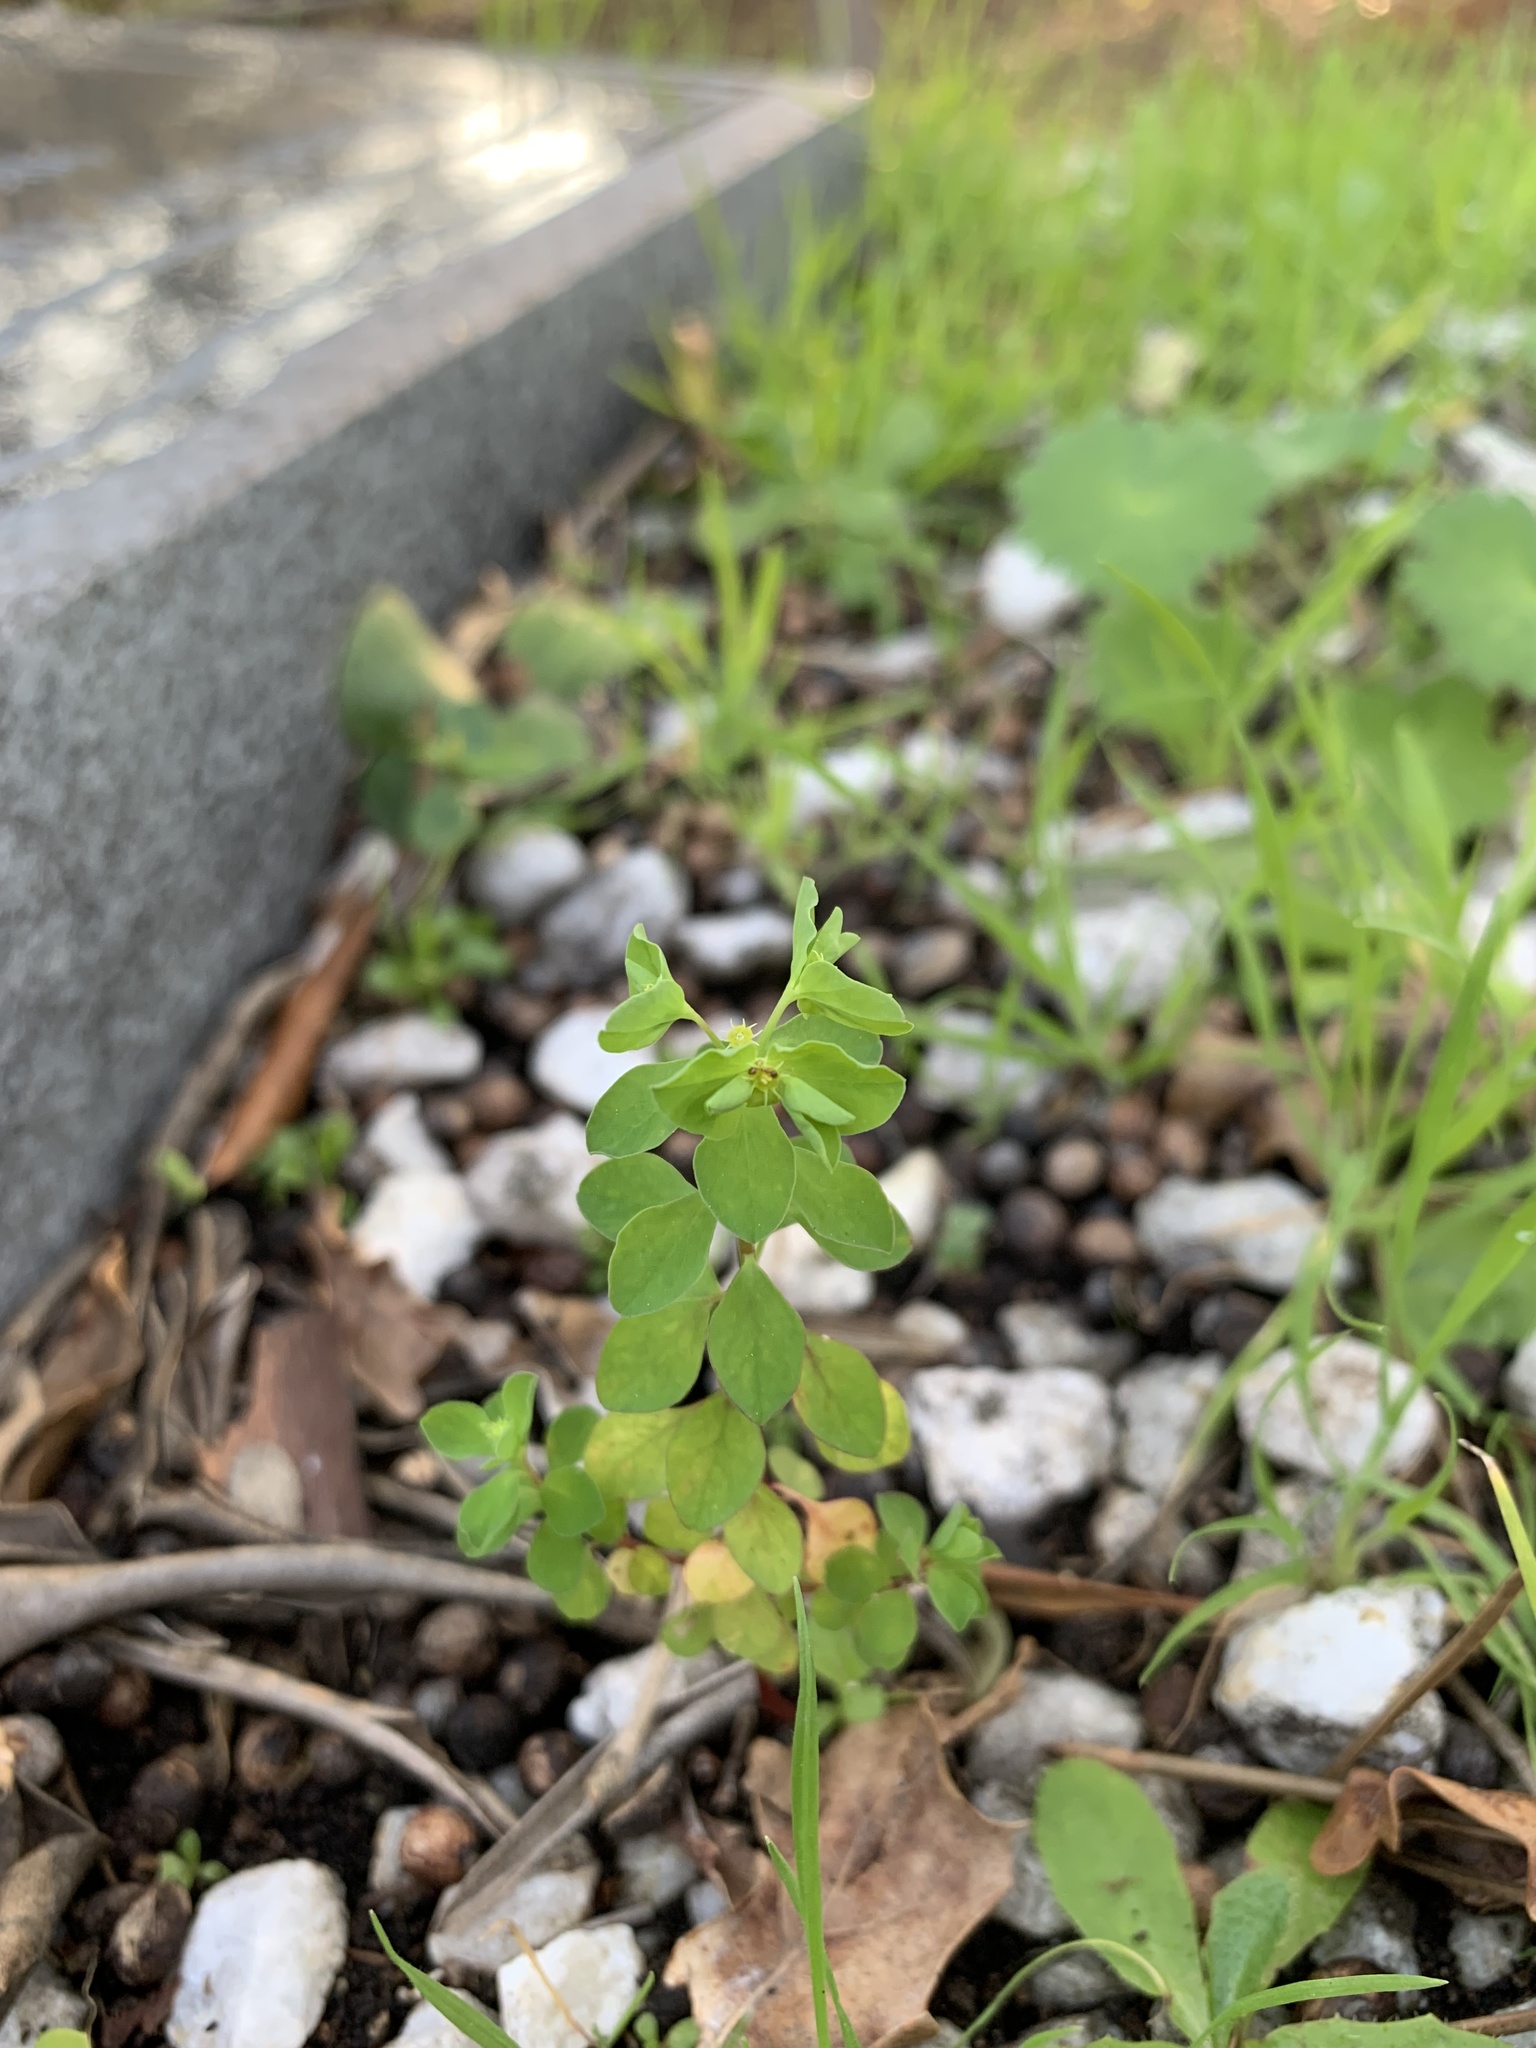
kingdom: Plantae
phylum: Tracheophyta
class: Magnoliopsida
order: Malpighiales
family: Euphorbiaceae
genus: Euphorbia
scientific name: Euphorbia peplus
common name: Petty spurge
